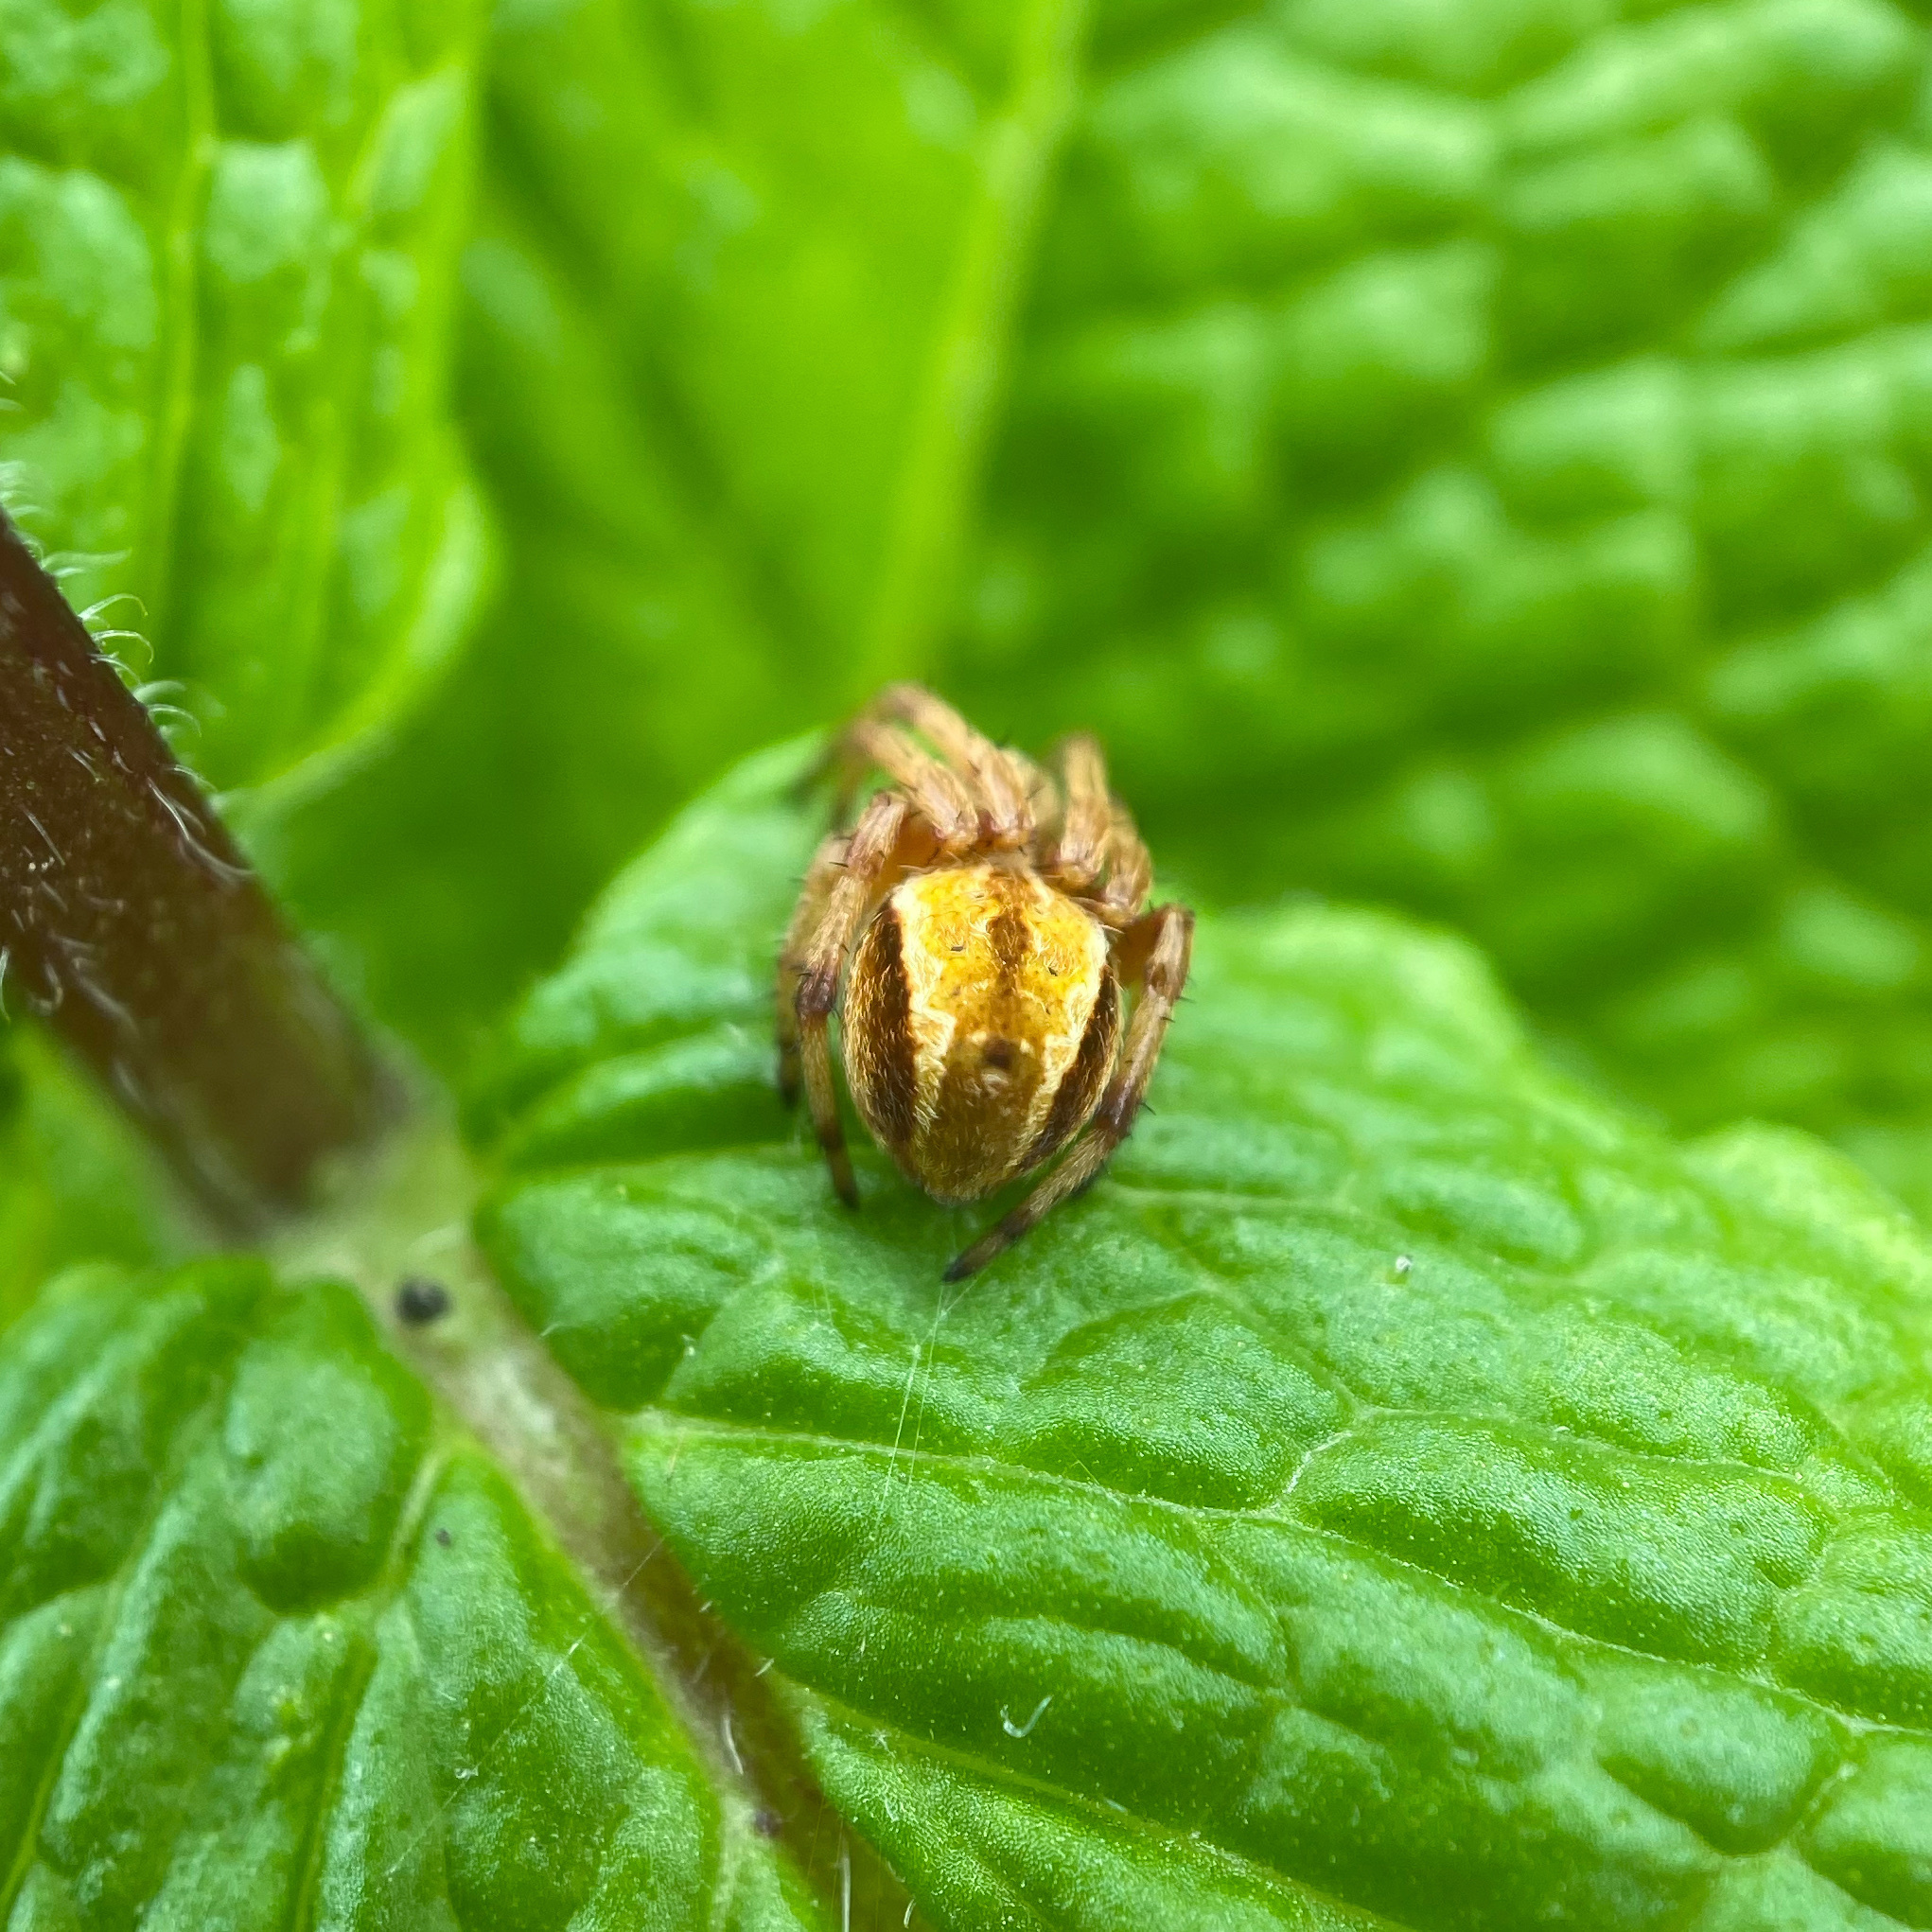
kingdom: Animalia
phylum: Arthropoda
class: Arachnida
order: Araneae
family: Araneidae
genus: Salsa
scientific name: Salsa fuliginata
